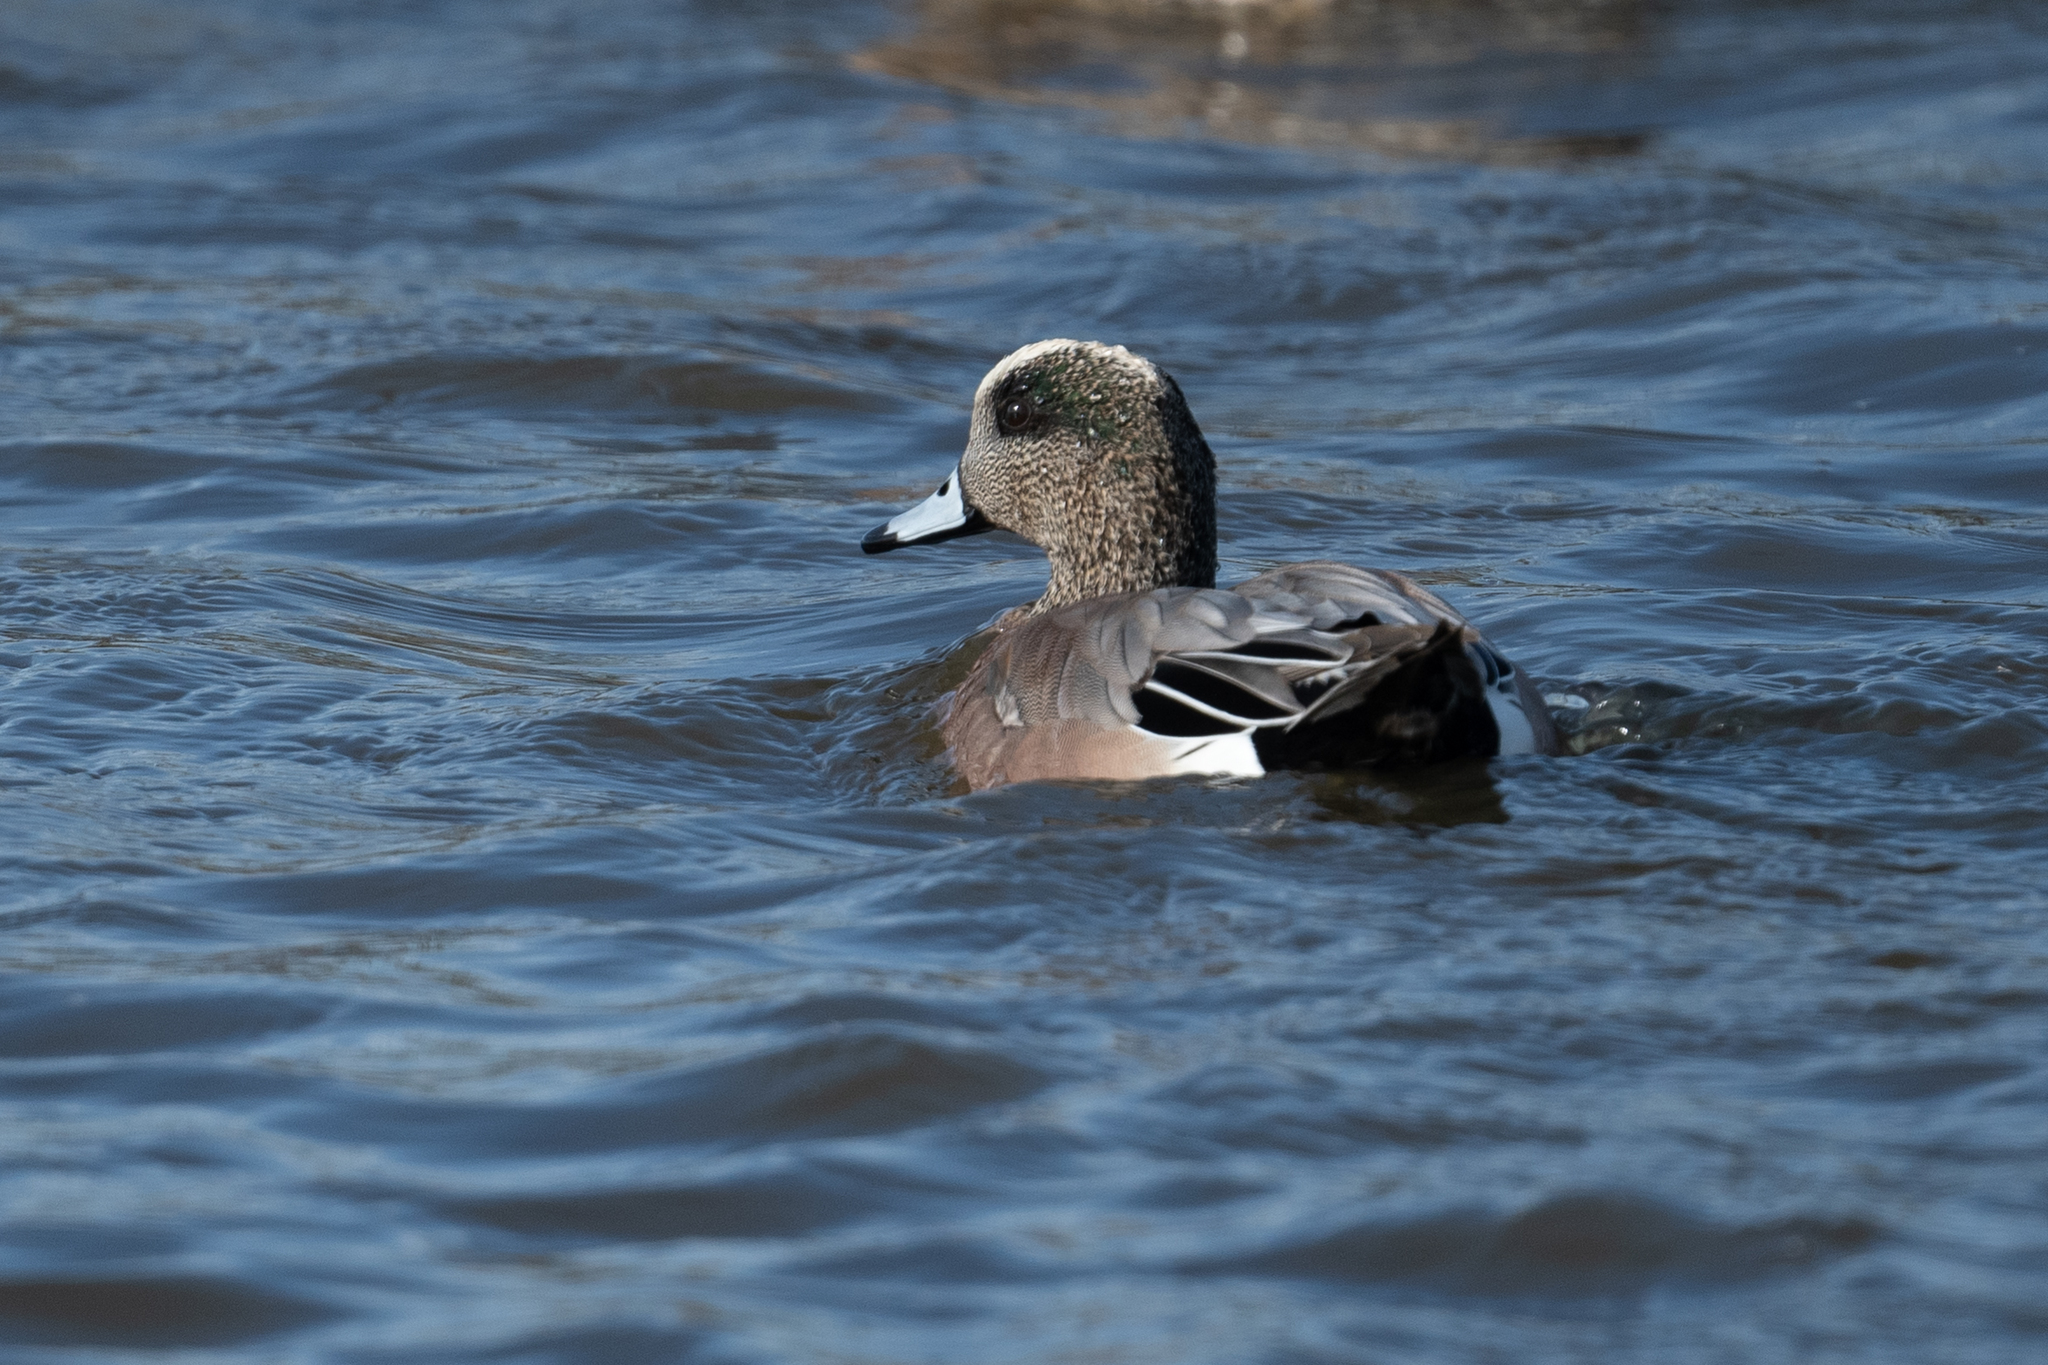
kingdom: Animalia
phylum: Chordata
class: Aves
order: Anseriformes
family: Anatidae
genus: Mareca
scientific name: Mareca americana
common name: American wigeon
